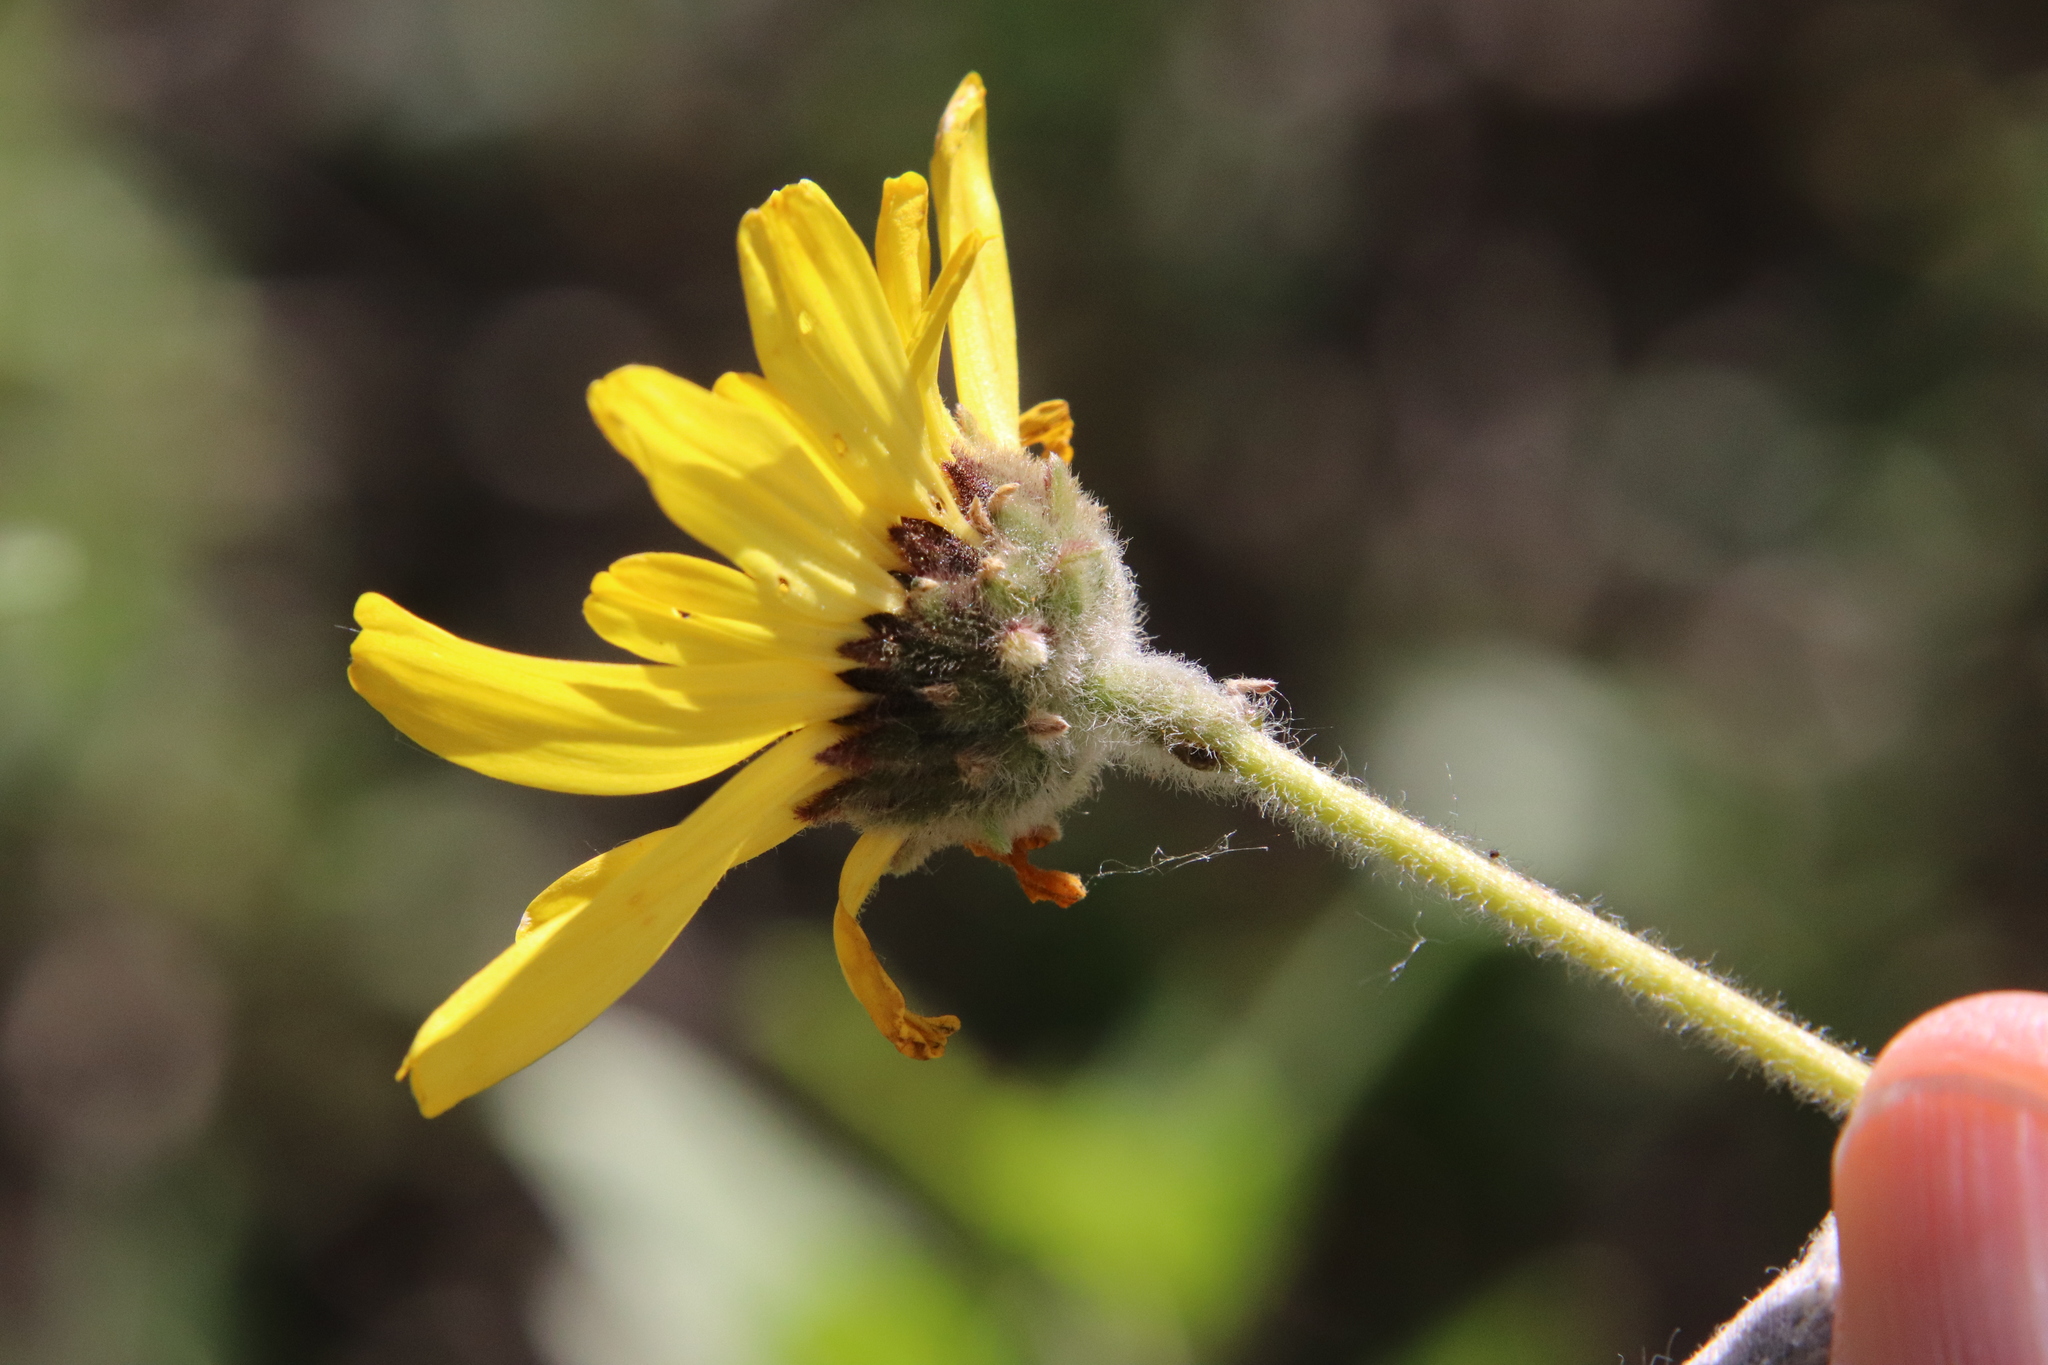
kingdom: Plantae
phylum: Tracheophyta
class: Magnoliopsida
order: Asterales
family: Asteraceae
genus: Encelia
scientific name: Encelia californica
